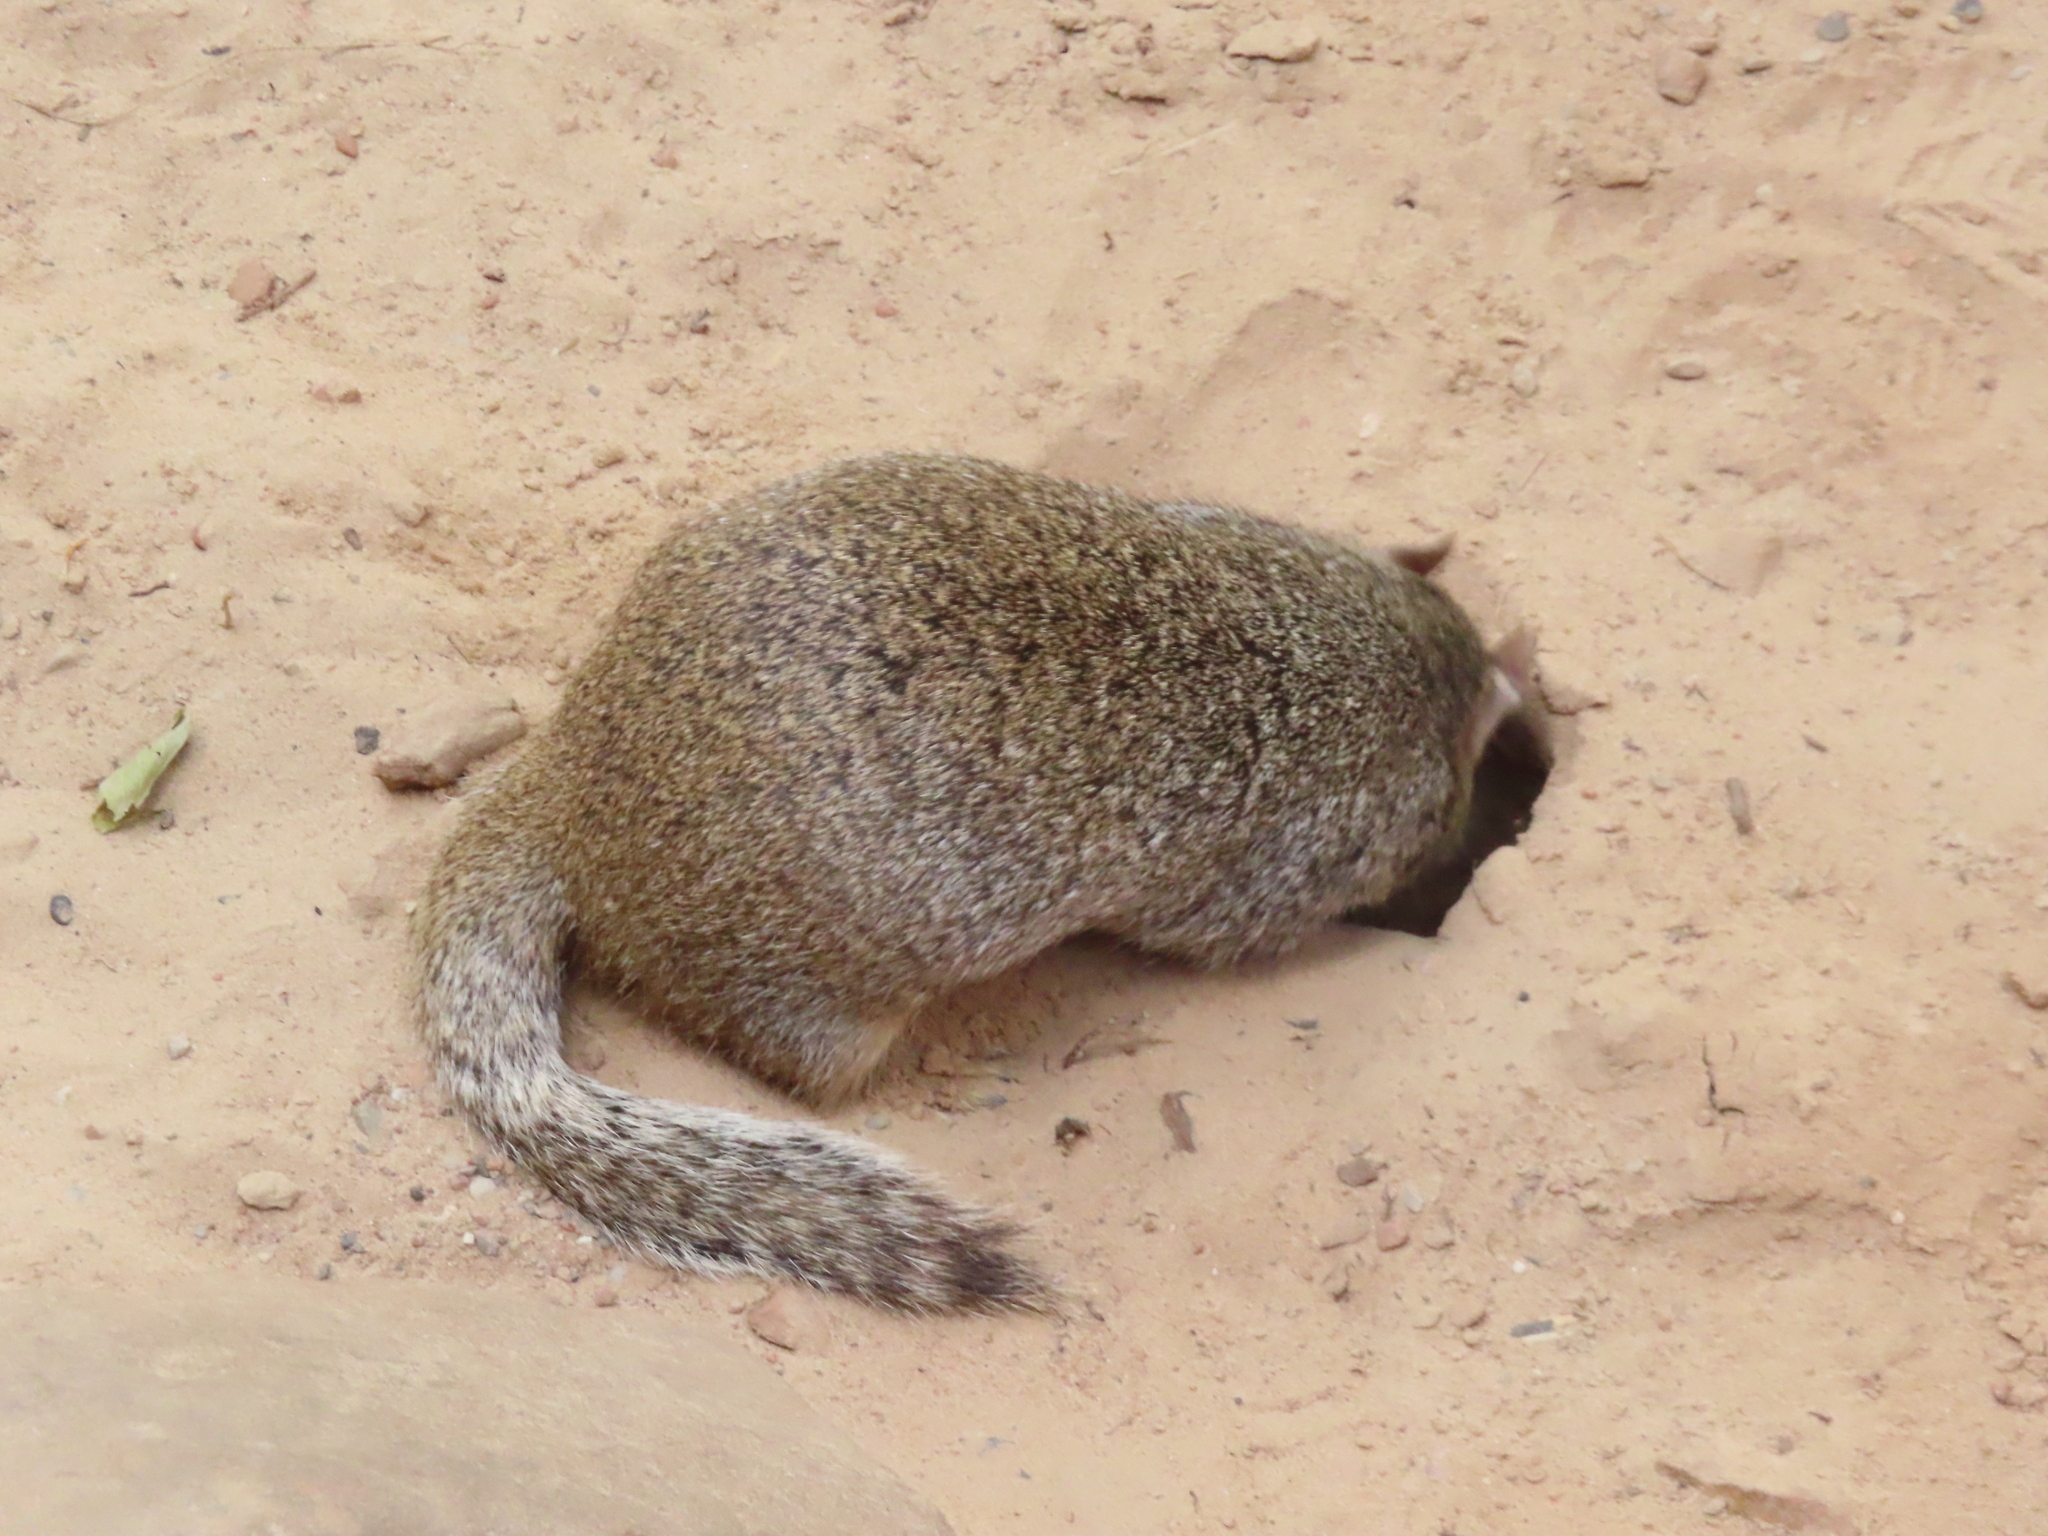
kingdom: Animalia
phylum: Chordata
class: Mammalia
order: Rodentia
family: Sciuridae
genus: Otospermophilus
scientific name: Otospermophilus variegatus
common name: Rock squirrel
